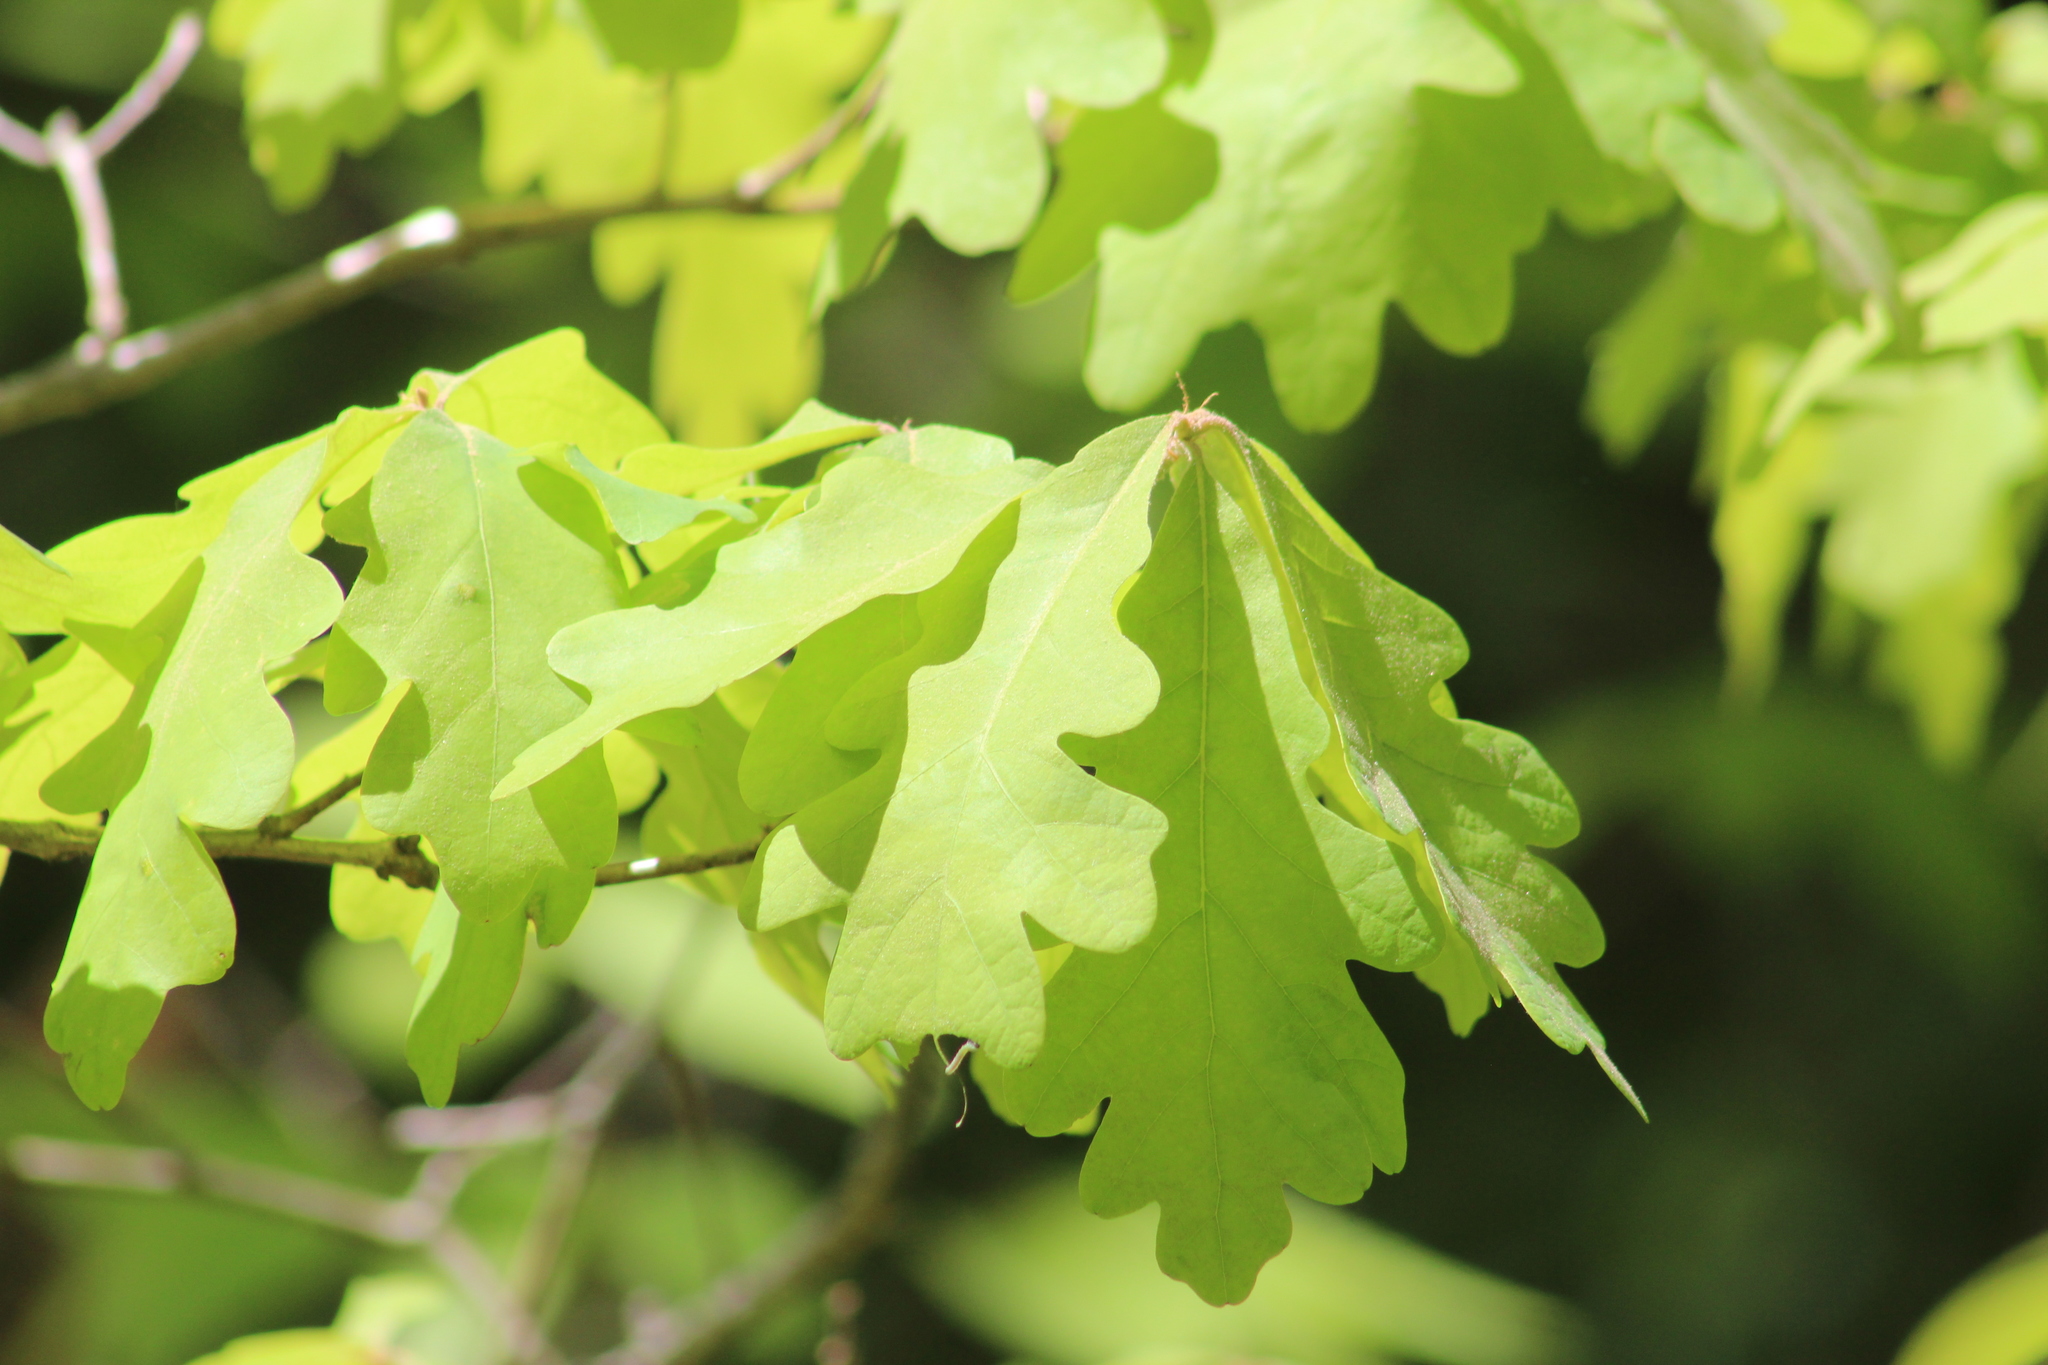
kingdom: Plantae
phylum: Tracheophyta
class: Magnoliopsida
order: Fagales
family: Fagaceae
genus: Quercus
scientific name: Quercus alba
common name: White oak
